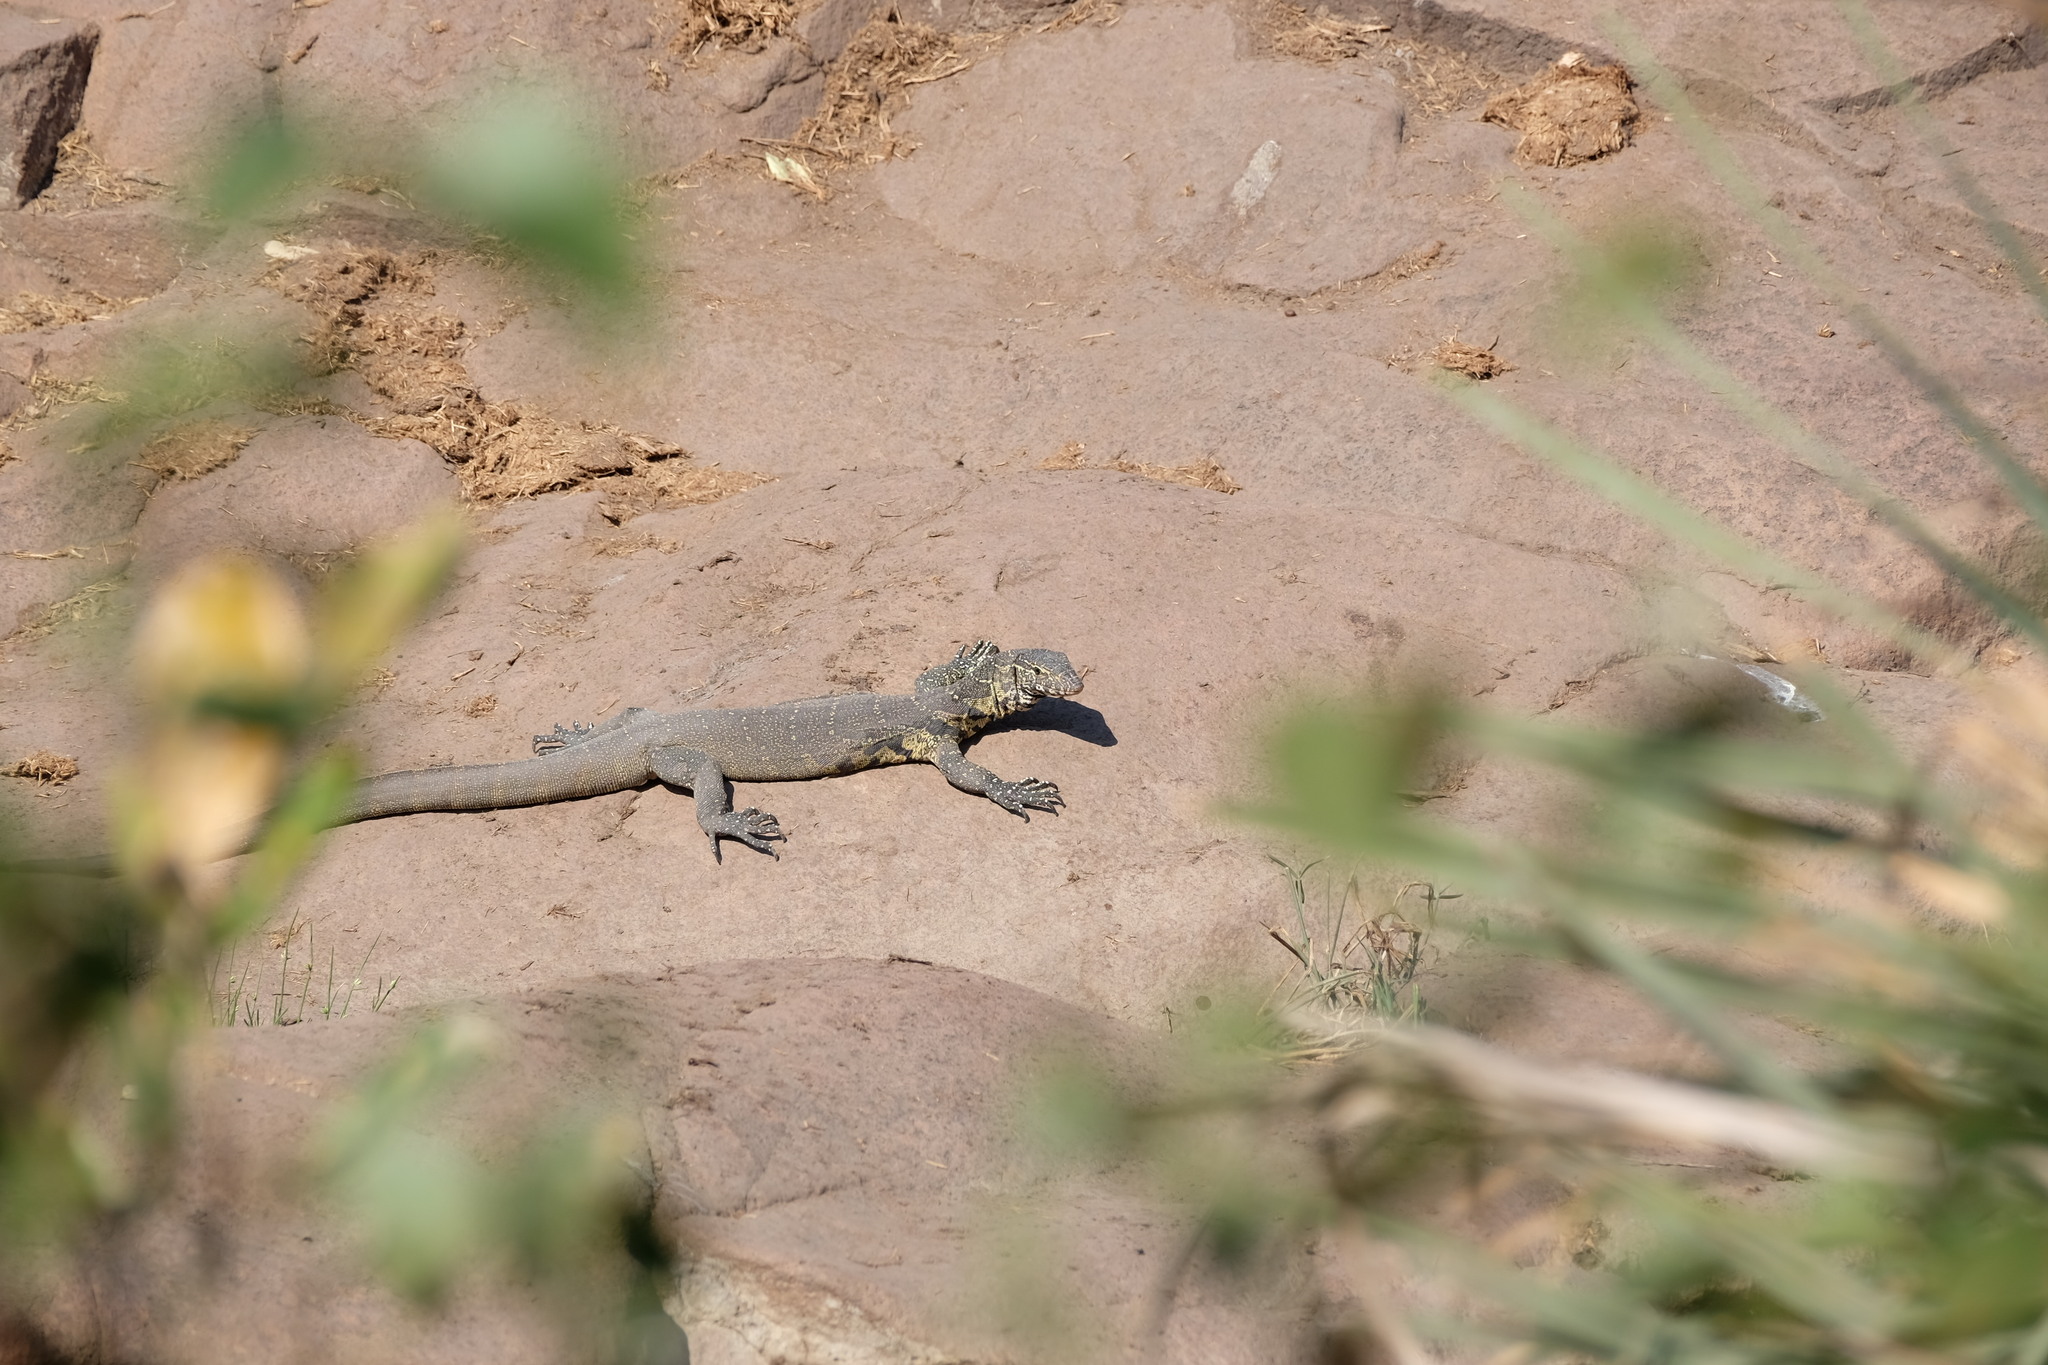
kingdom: Animalia
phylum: Chordata
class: Squamata
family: Varanidae
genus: Varanus
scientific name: Varanus niloticus
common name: Nile monitor
